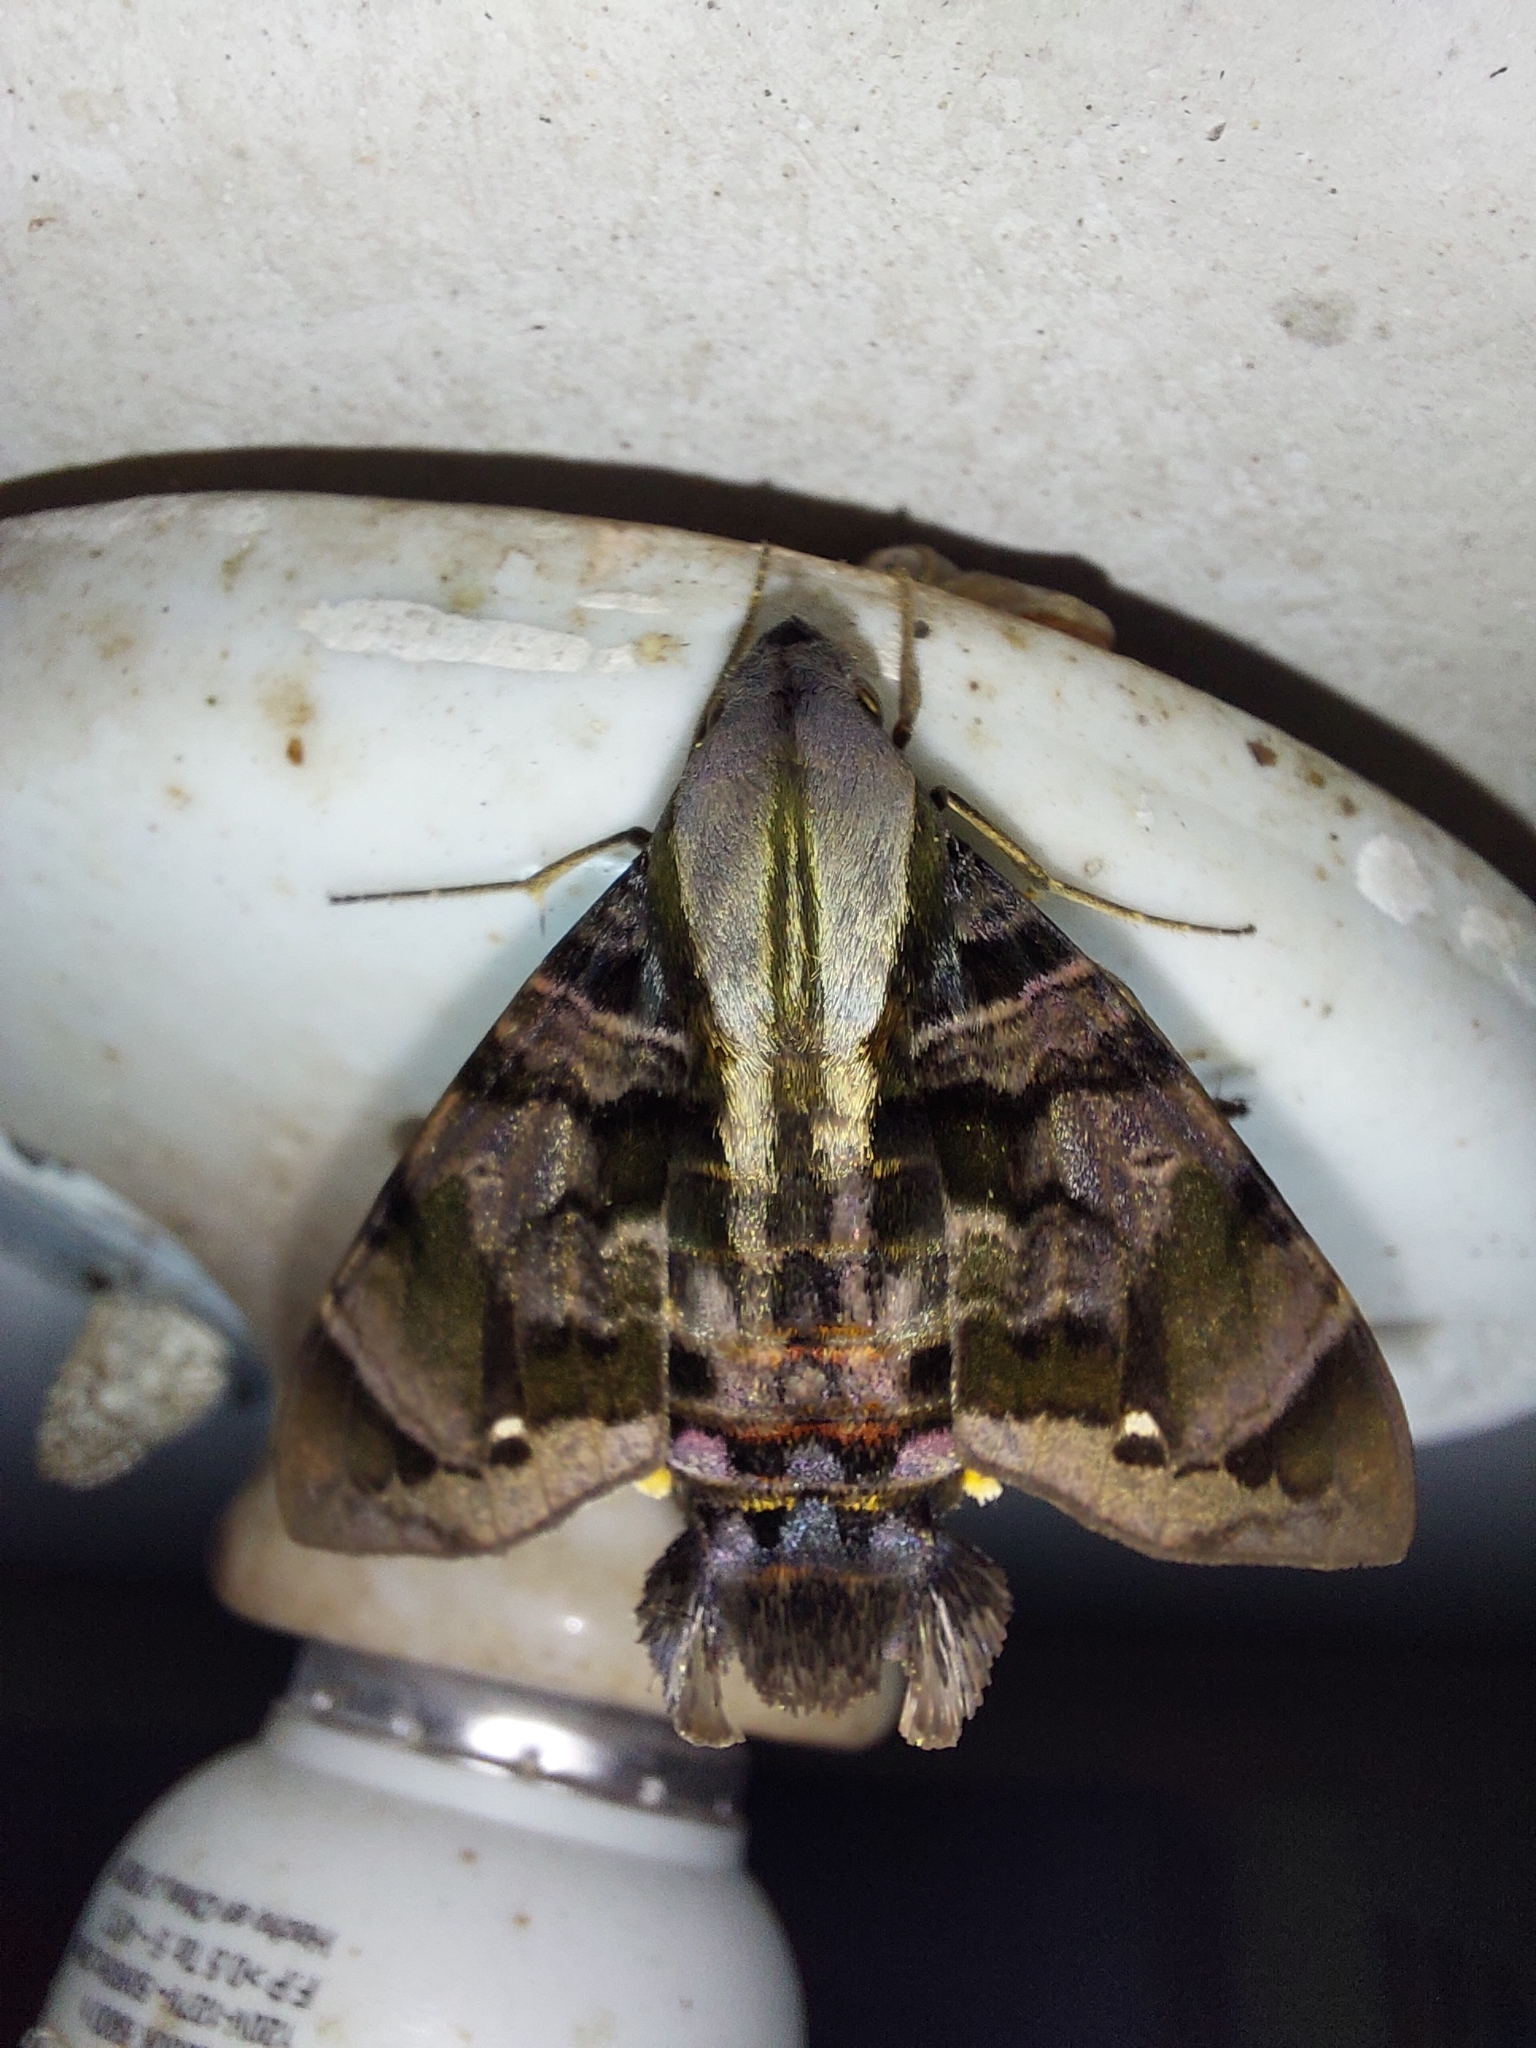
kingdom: Animalia
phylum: Arthropoda
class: Insecta
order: Lepidoptera
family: Sphingidae
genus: Eupyrrhoglossum
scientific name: Eupyrrhoglossum sagra
